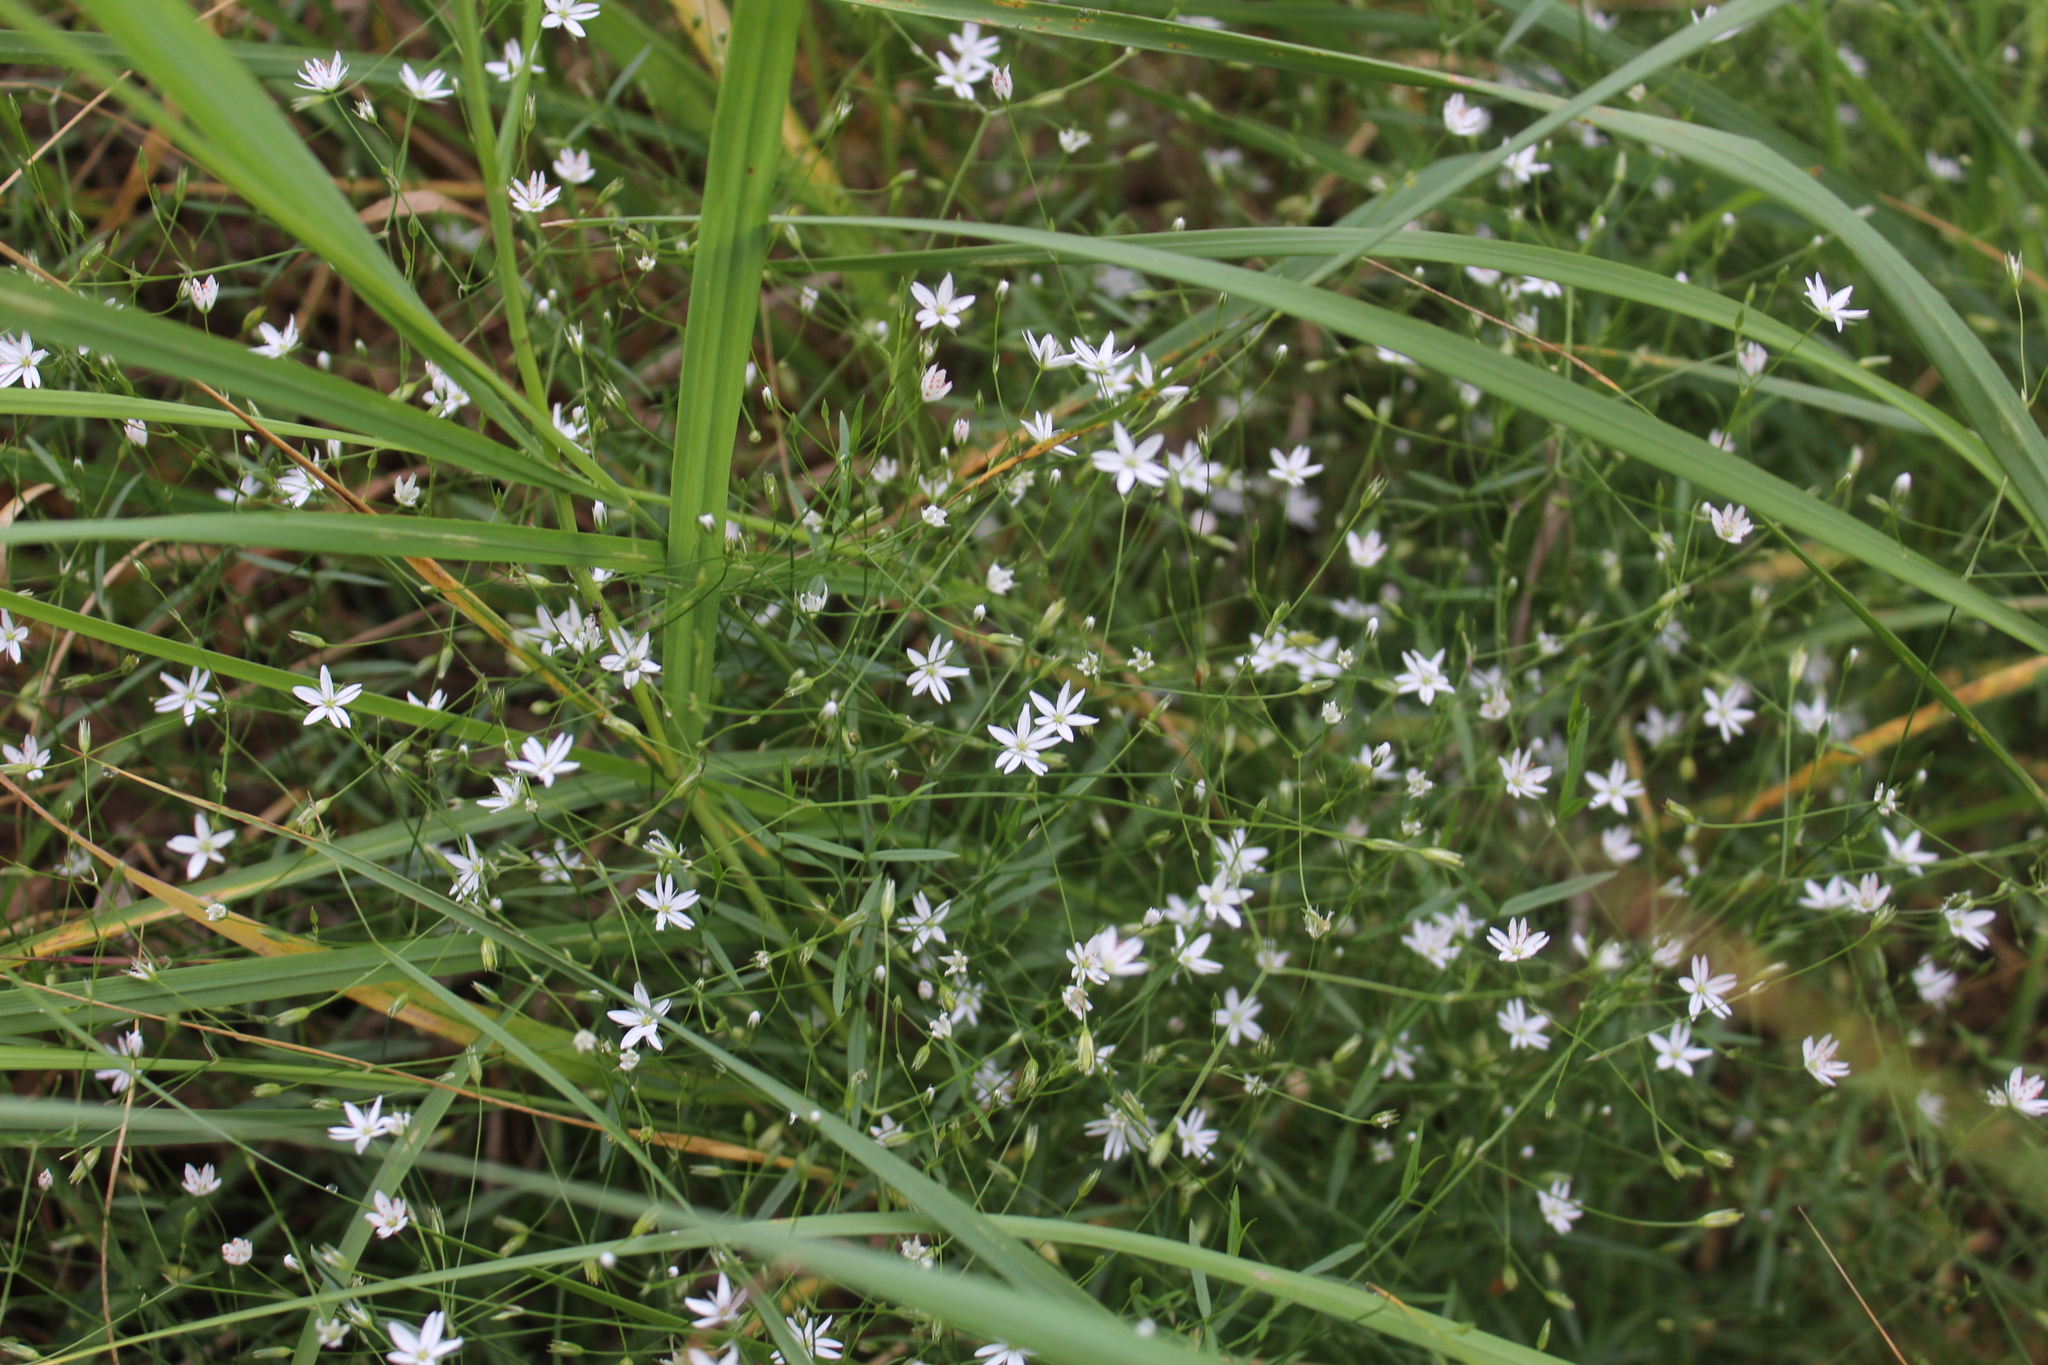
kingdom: Plantae
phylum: Tracheophyta
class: Magnoliopsida
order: Caryophyllales
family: Caryophyllaceae
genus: Stellaria
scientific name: Stellaria graminea
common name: Grass-like starwort
